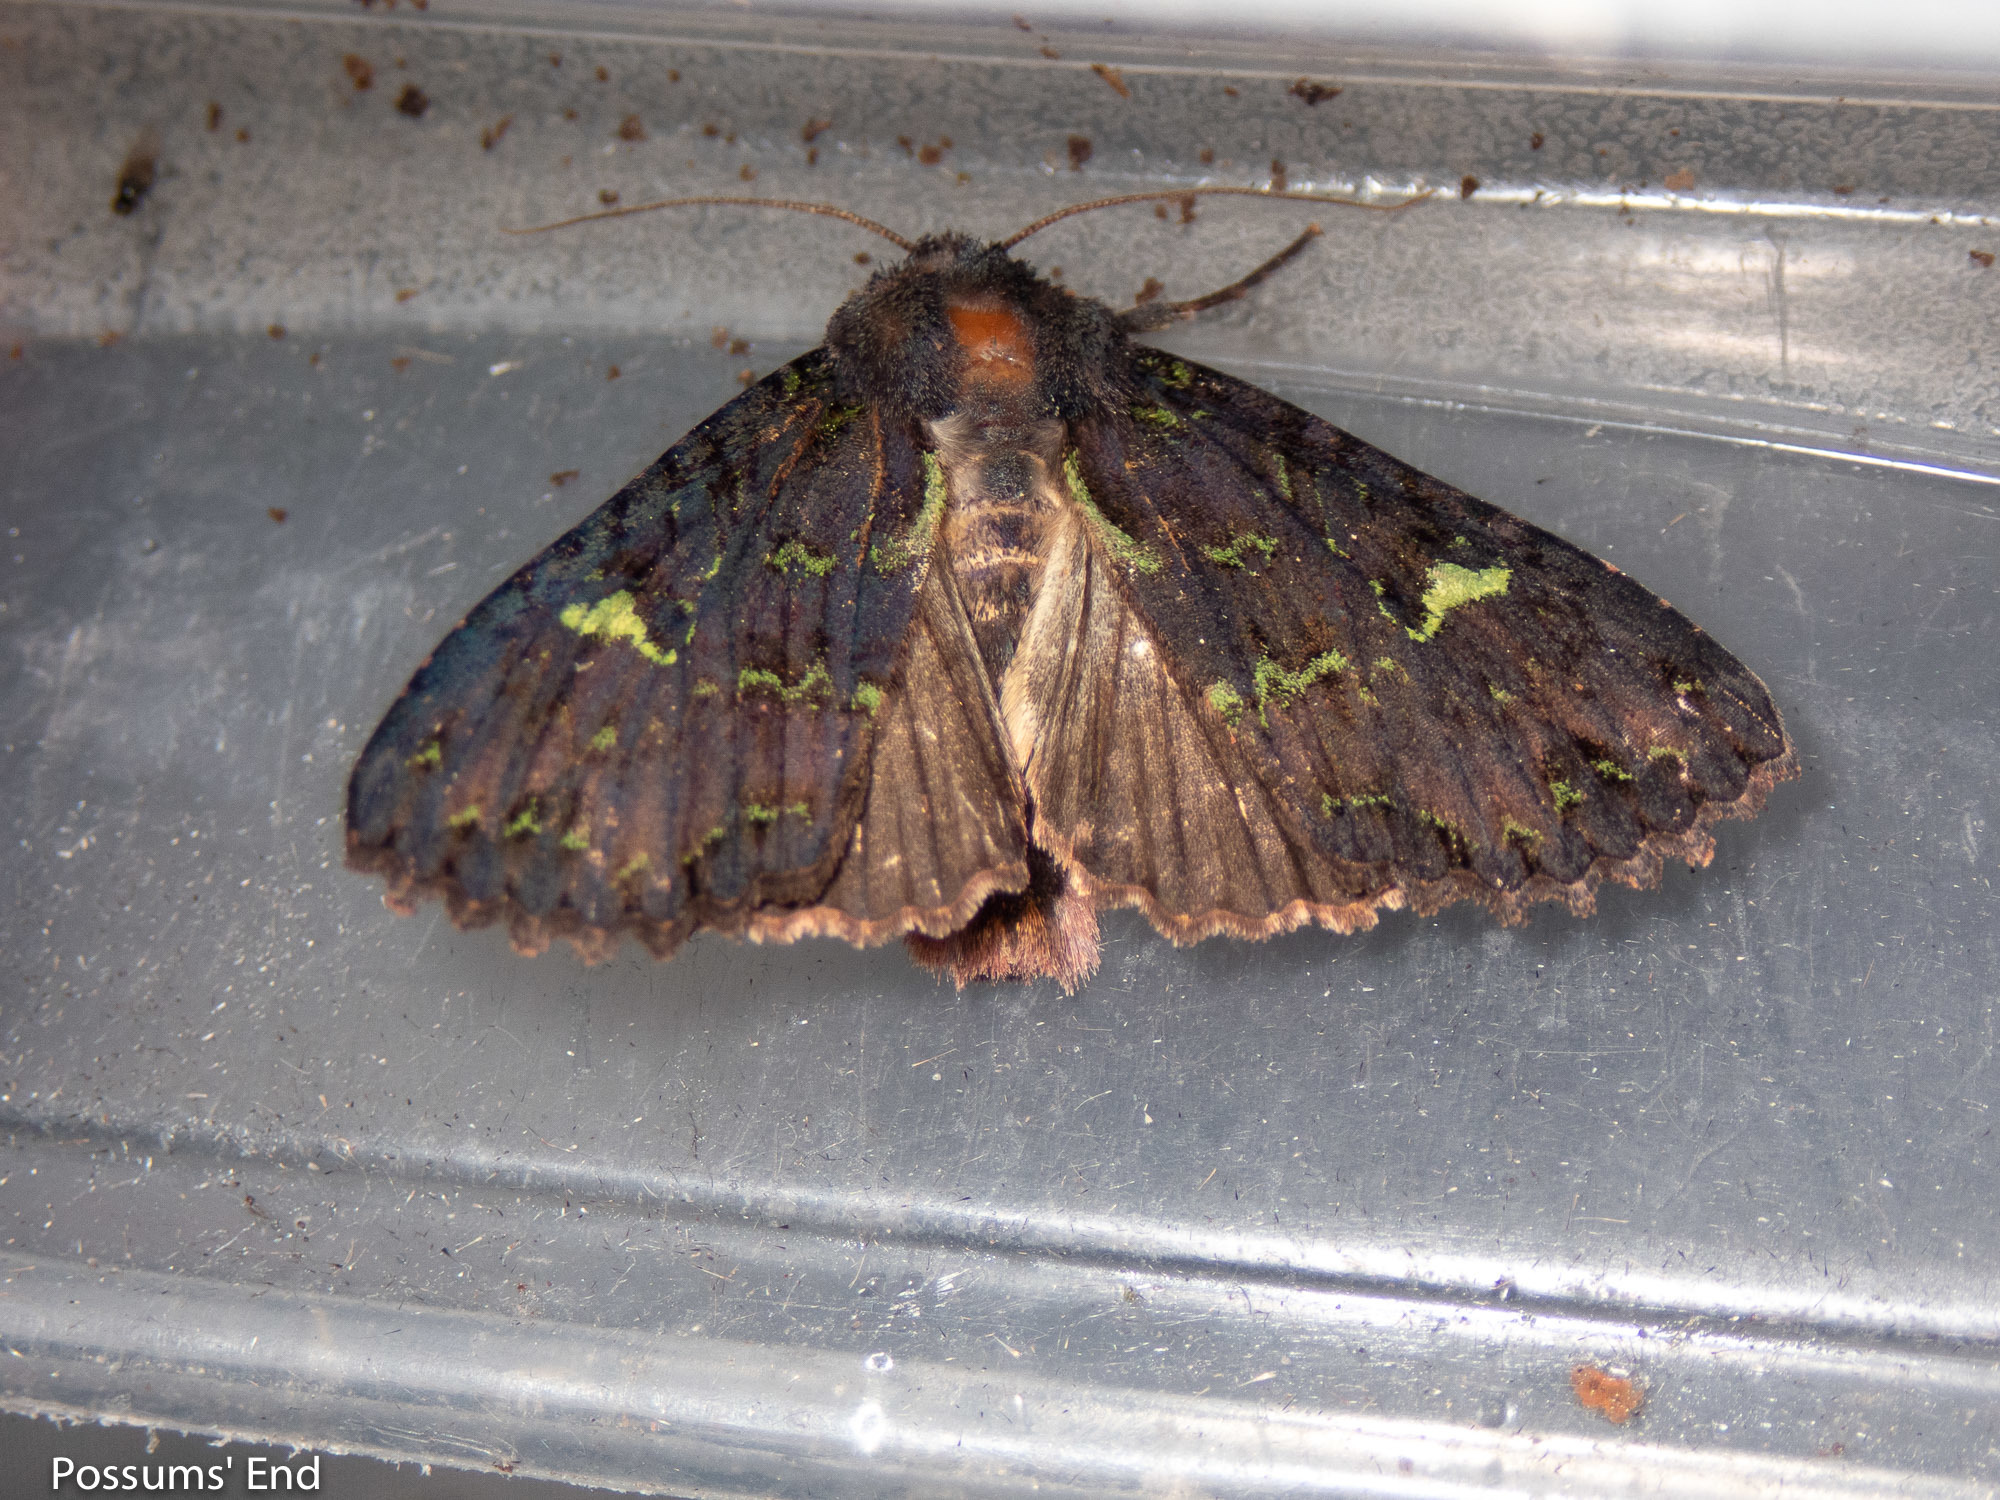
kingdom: Animalia
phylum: Arthropoda
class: Insecta
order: Lepidoptera
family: Noctuidae
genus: Meterana
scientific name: Meterana merope
